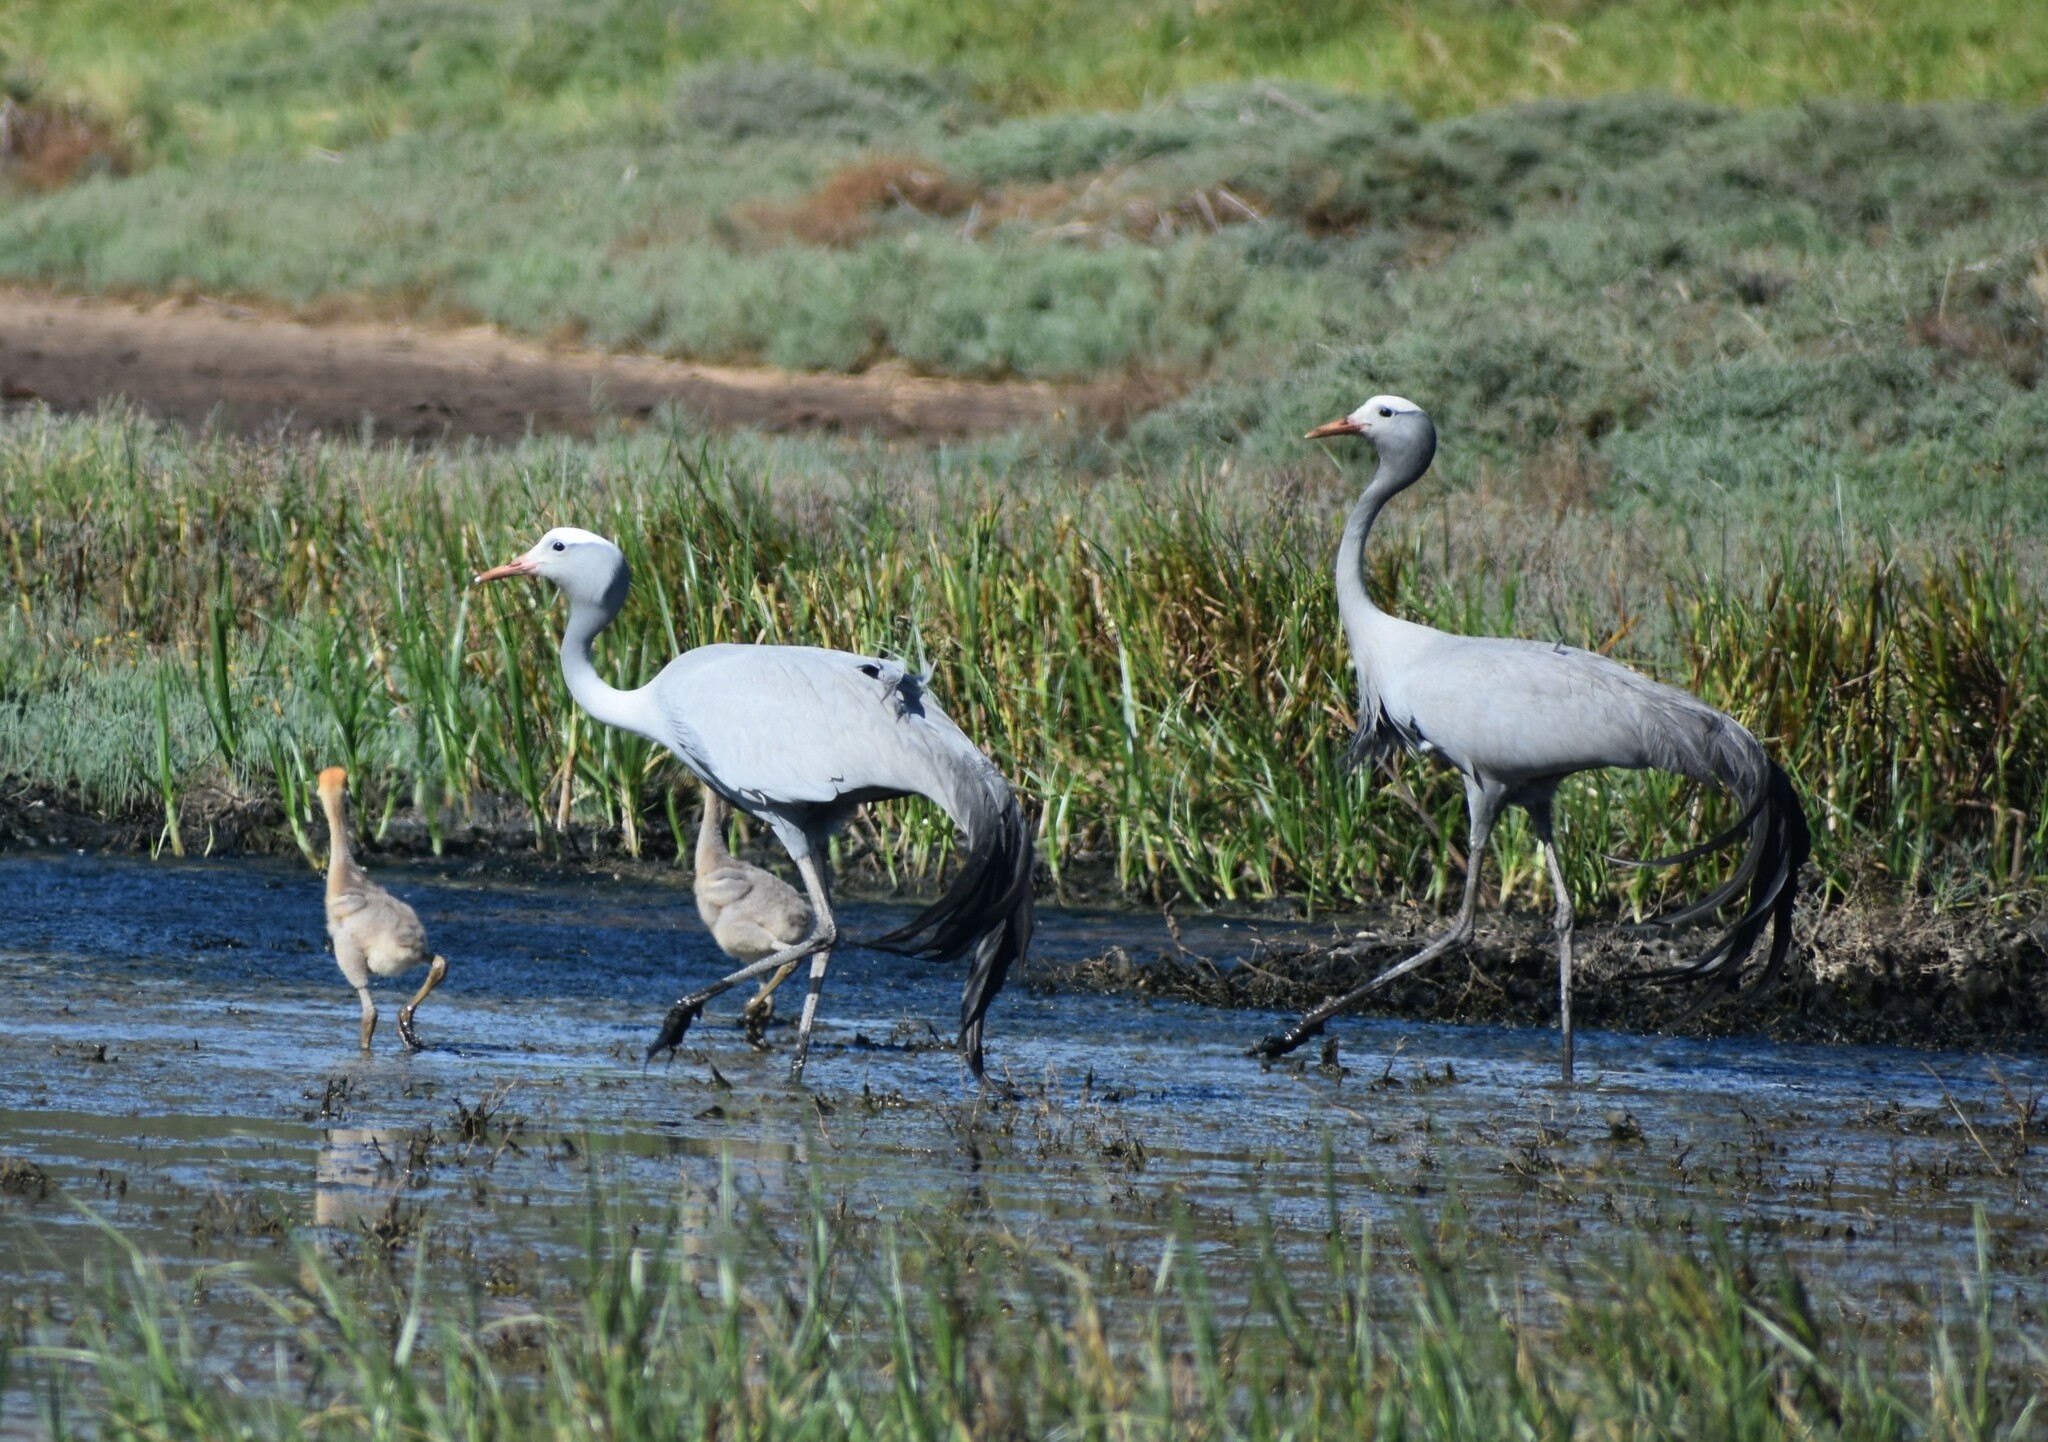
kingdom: Animalia
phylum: Chordata
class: Aves
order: Gruiformes
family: Gruidae
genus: Anthropoides
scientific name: Anthropoides paradiseus
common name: Blue crane
